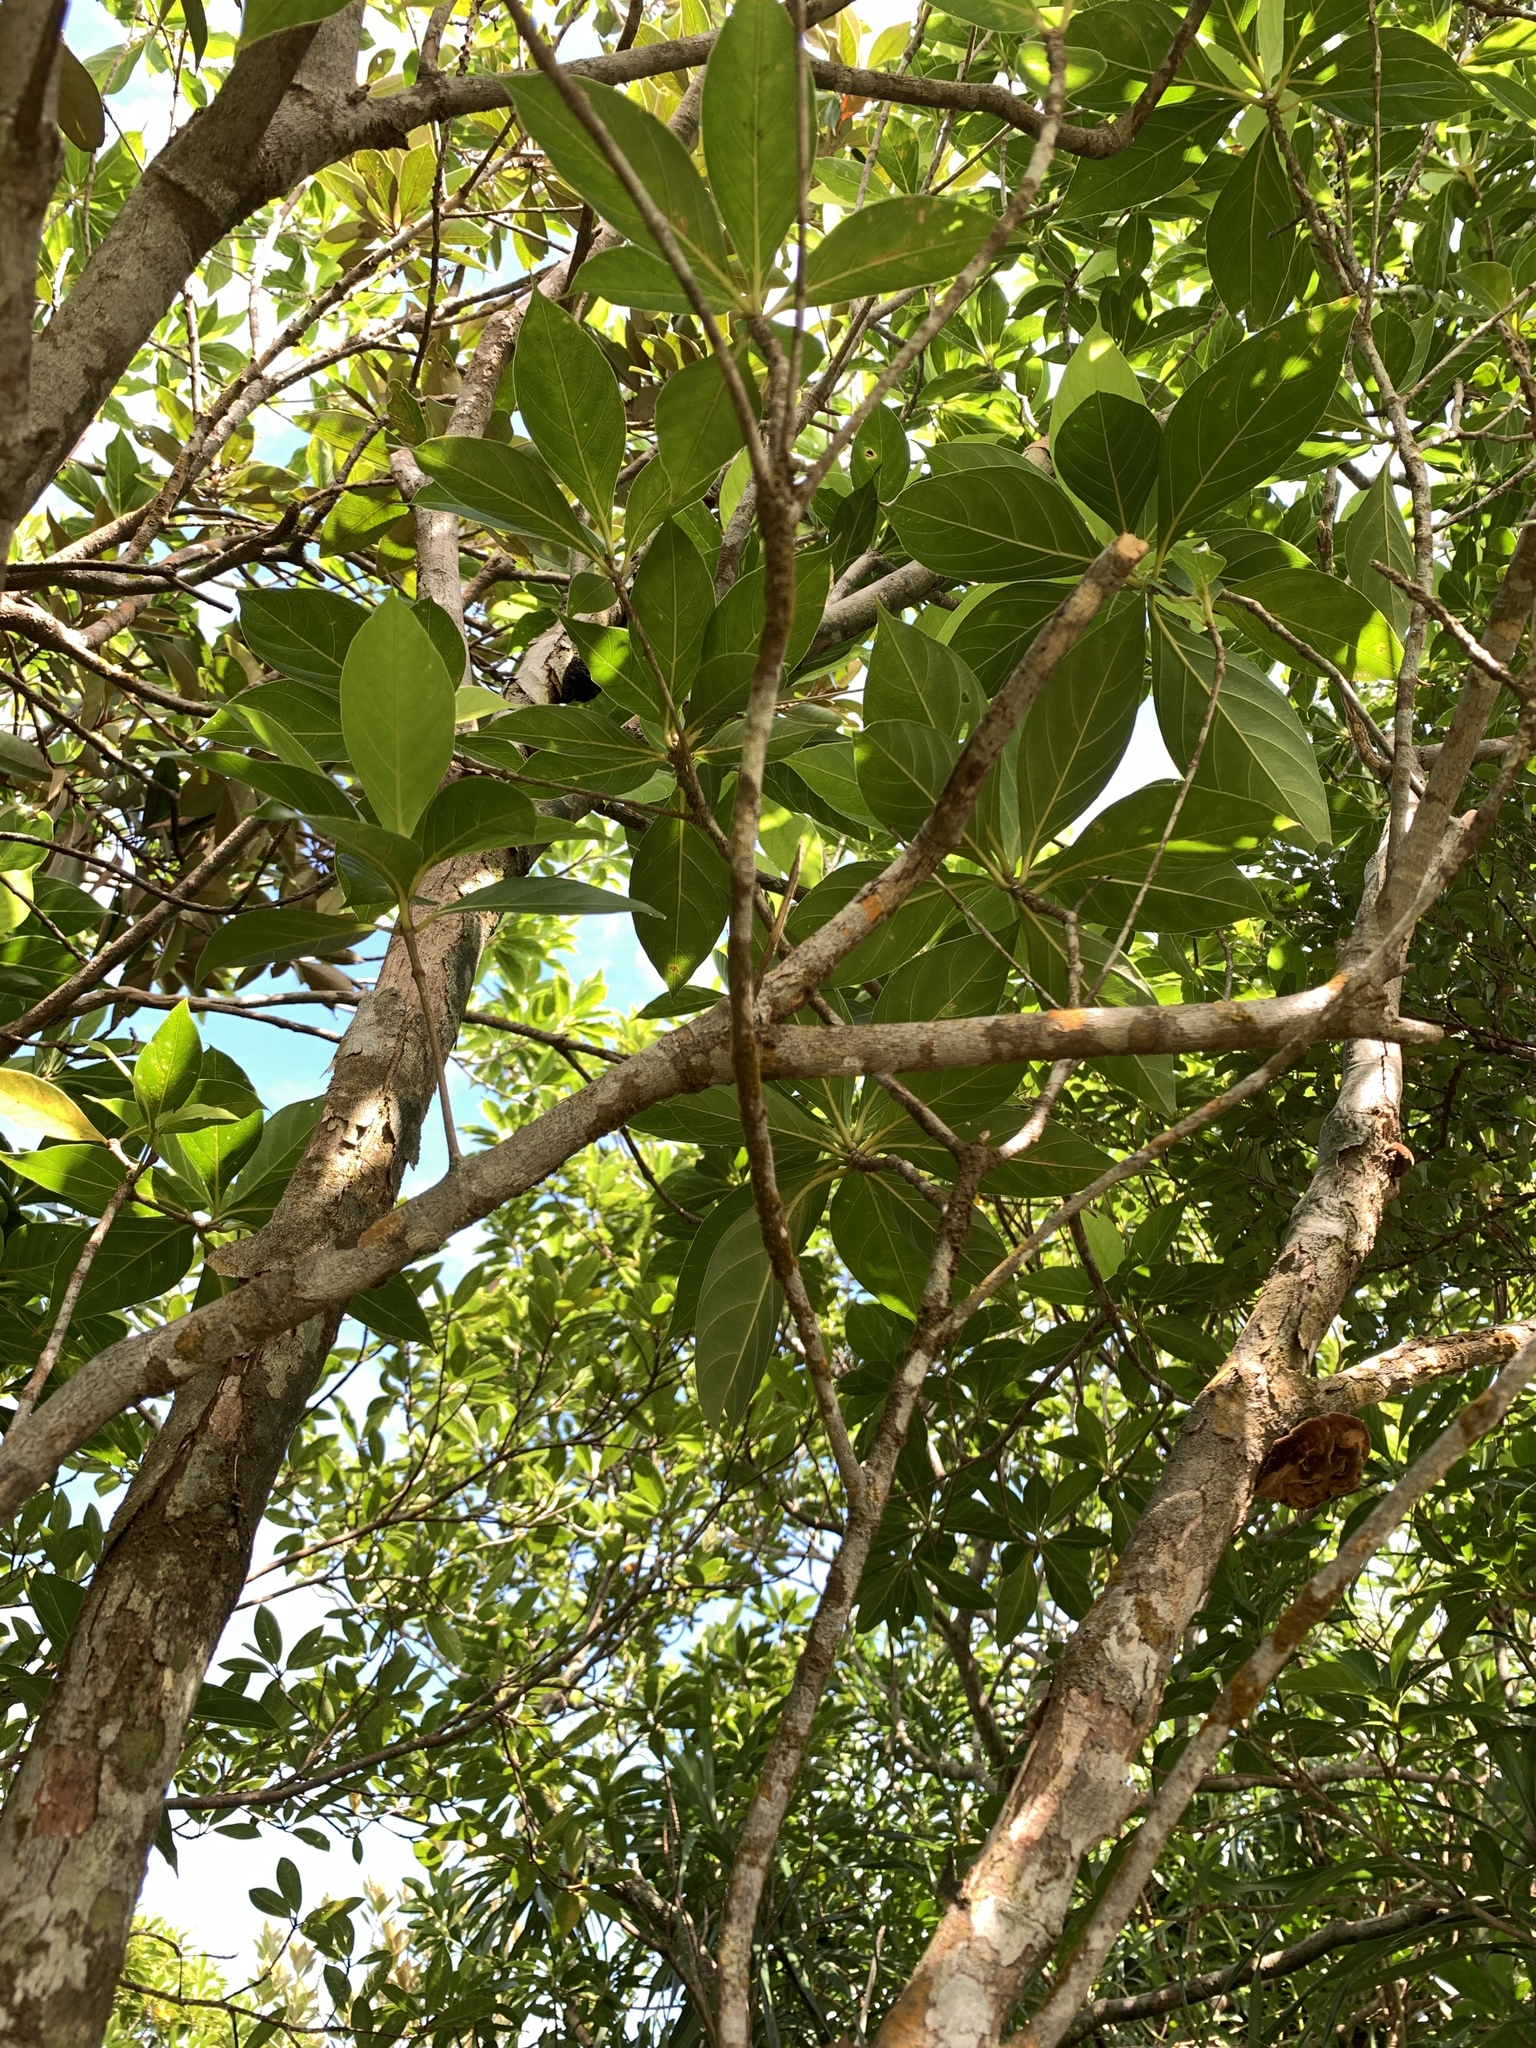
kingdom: Plantae
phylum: Tracheophyta
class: Magnoliopsida
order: Gentianales
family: Rubiaceae
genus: Timonius
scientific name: Timonius arboreus
